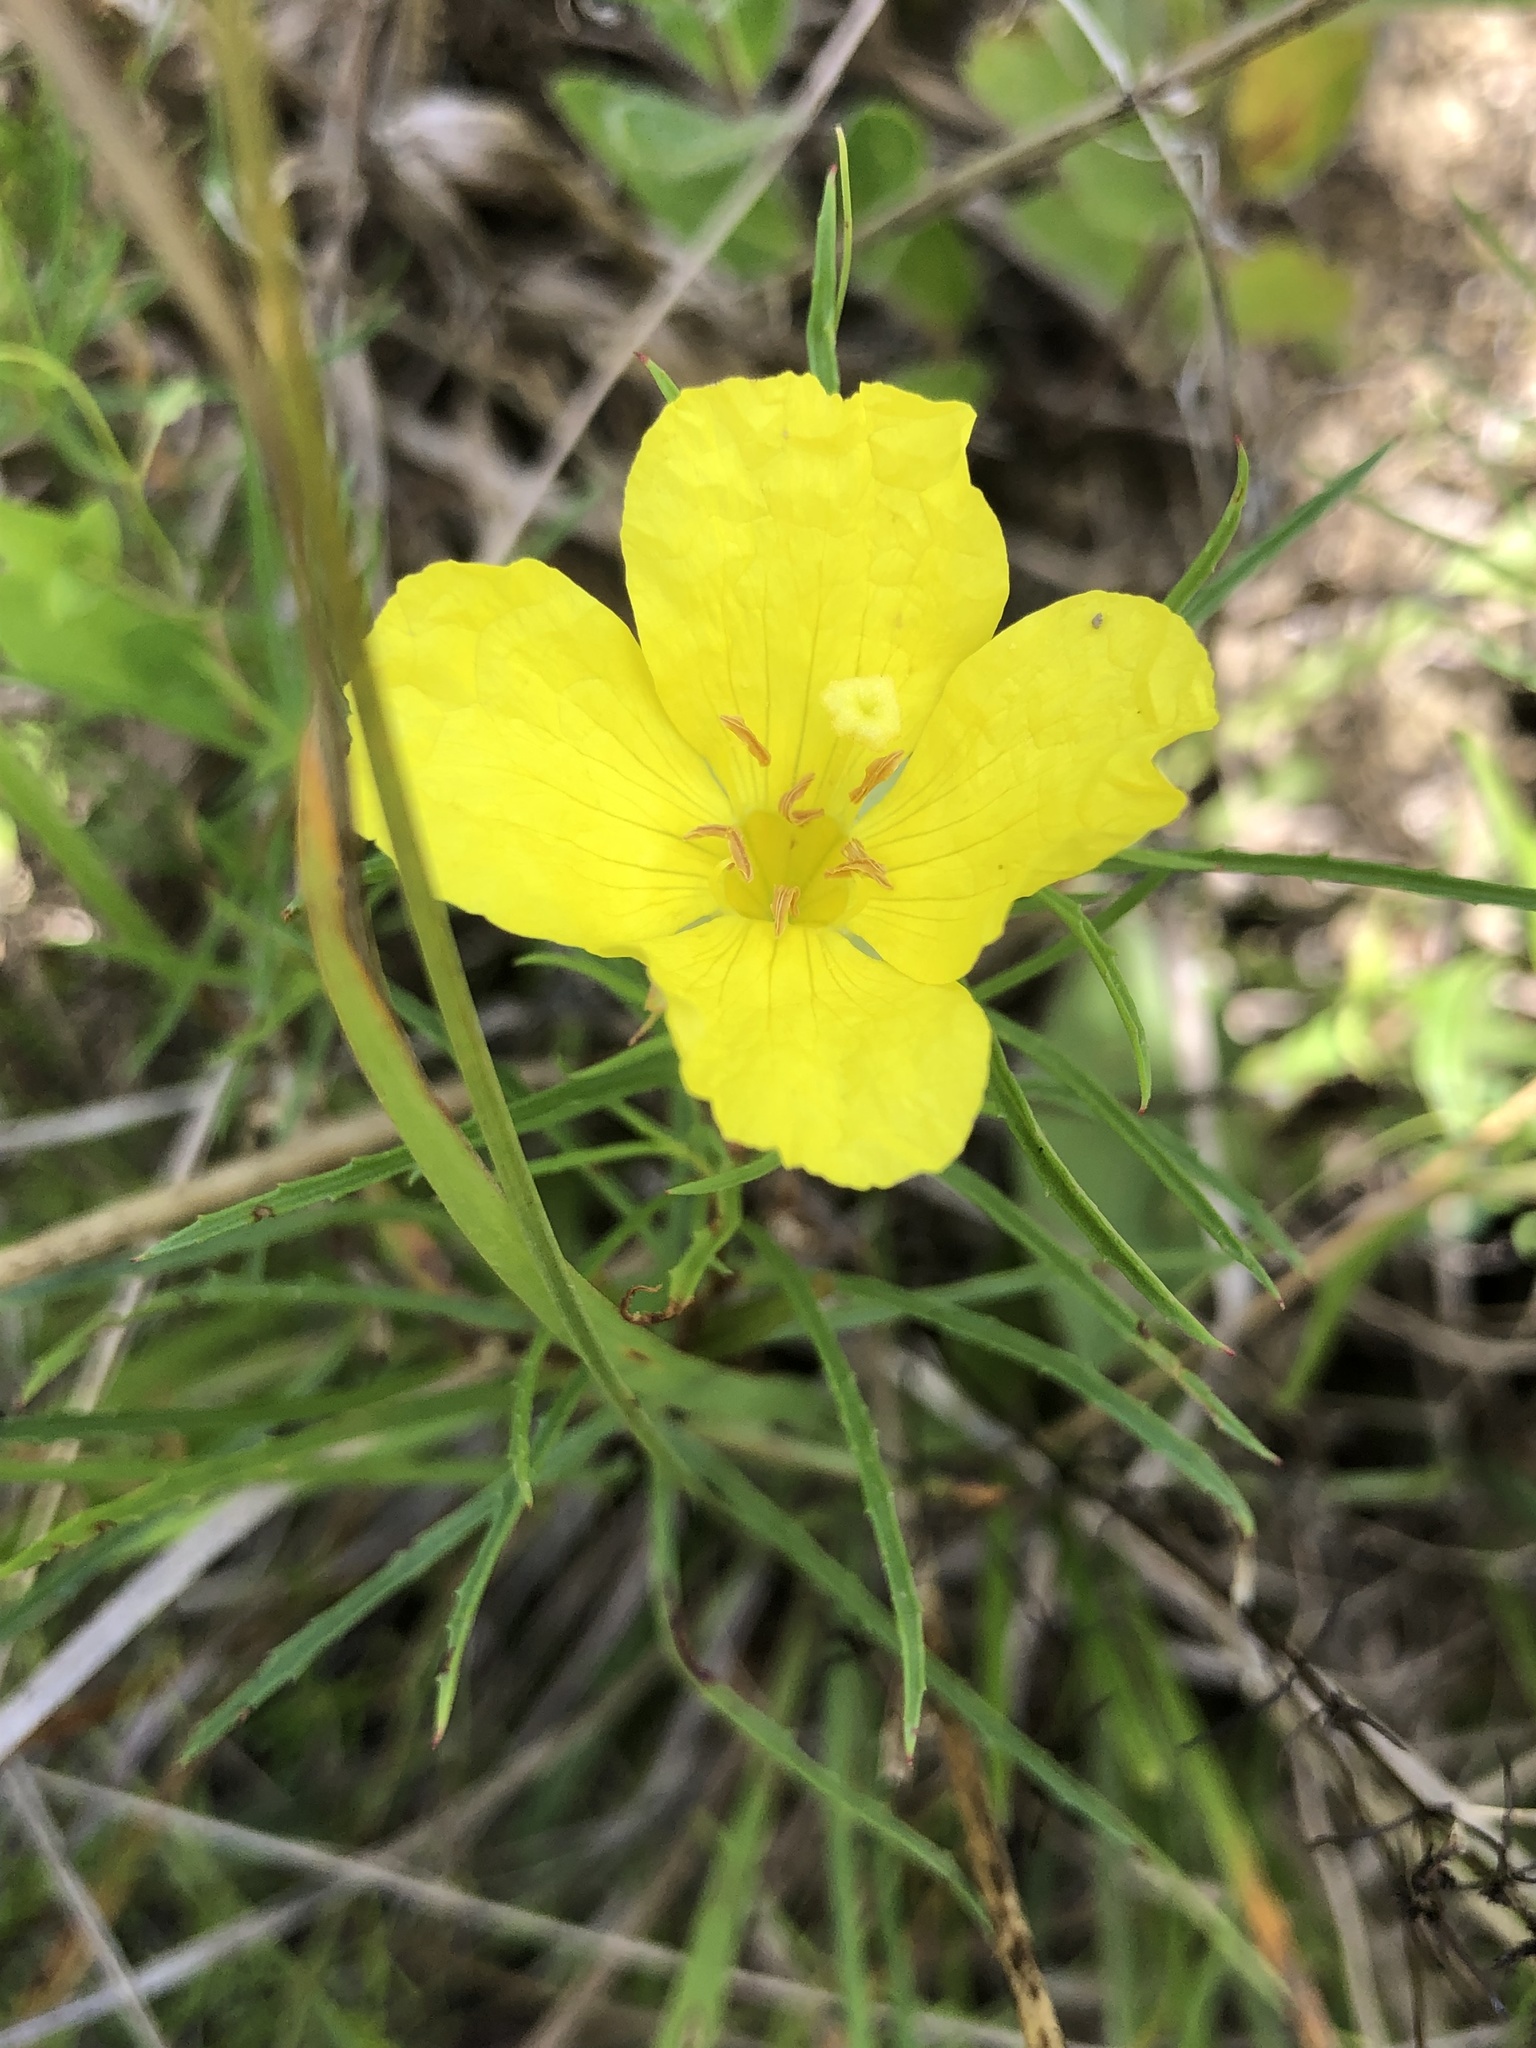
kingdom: Plantae
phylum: Tracheophyta
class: Magnoliopsida
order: Myrtales
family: Onagraceae
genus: Oenothera
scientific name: Oenothera capillifolia
